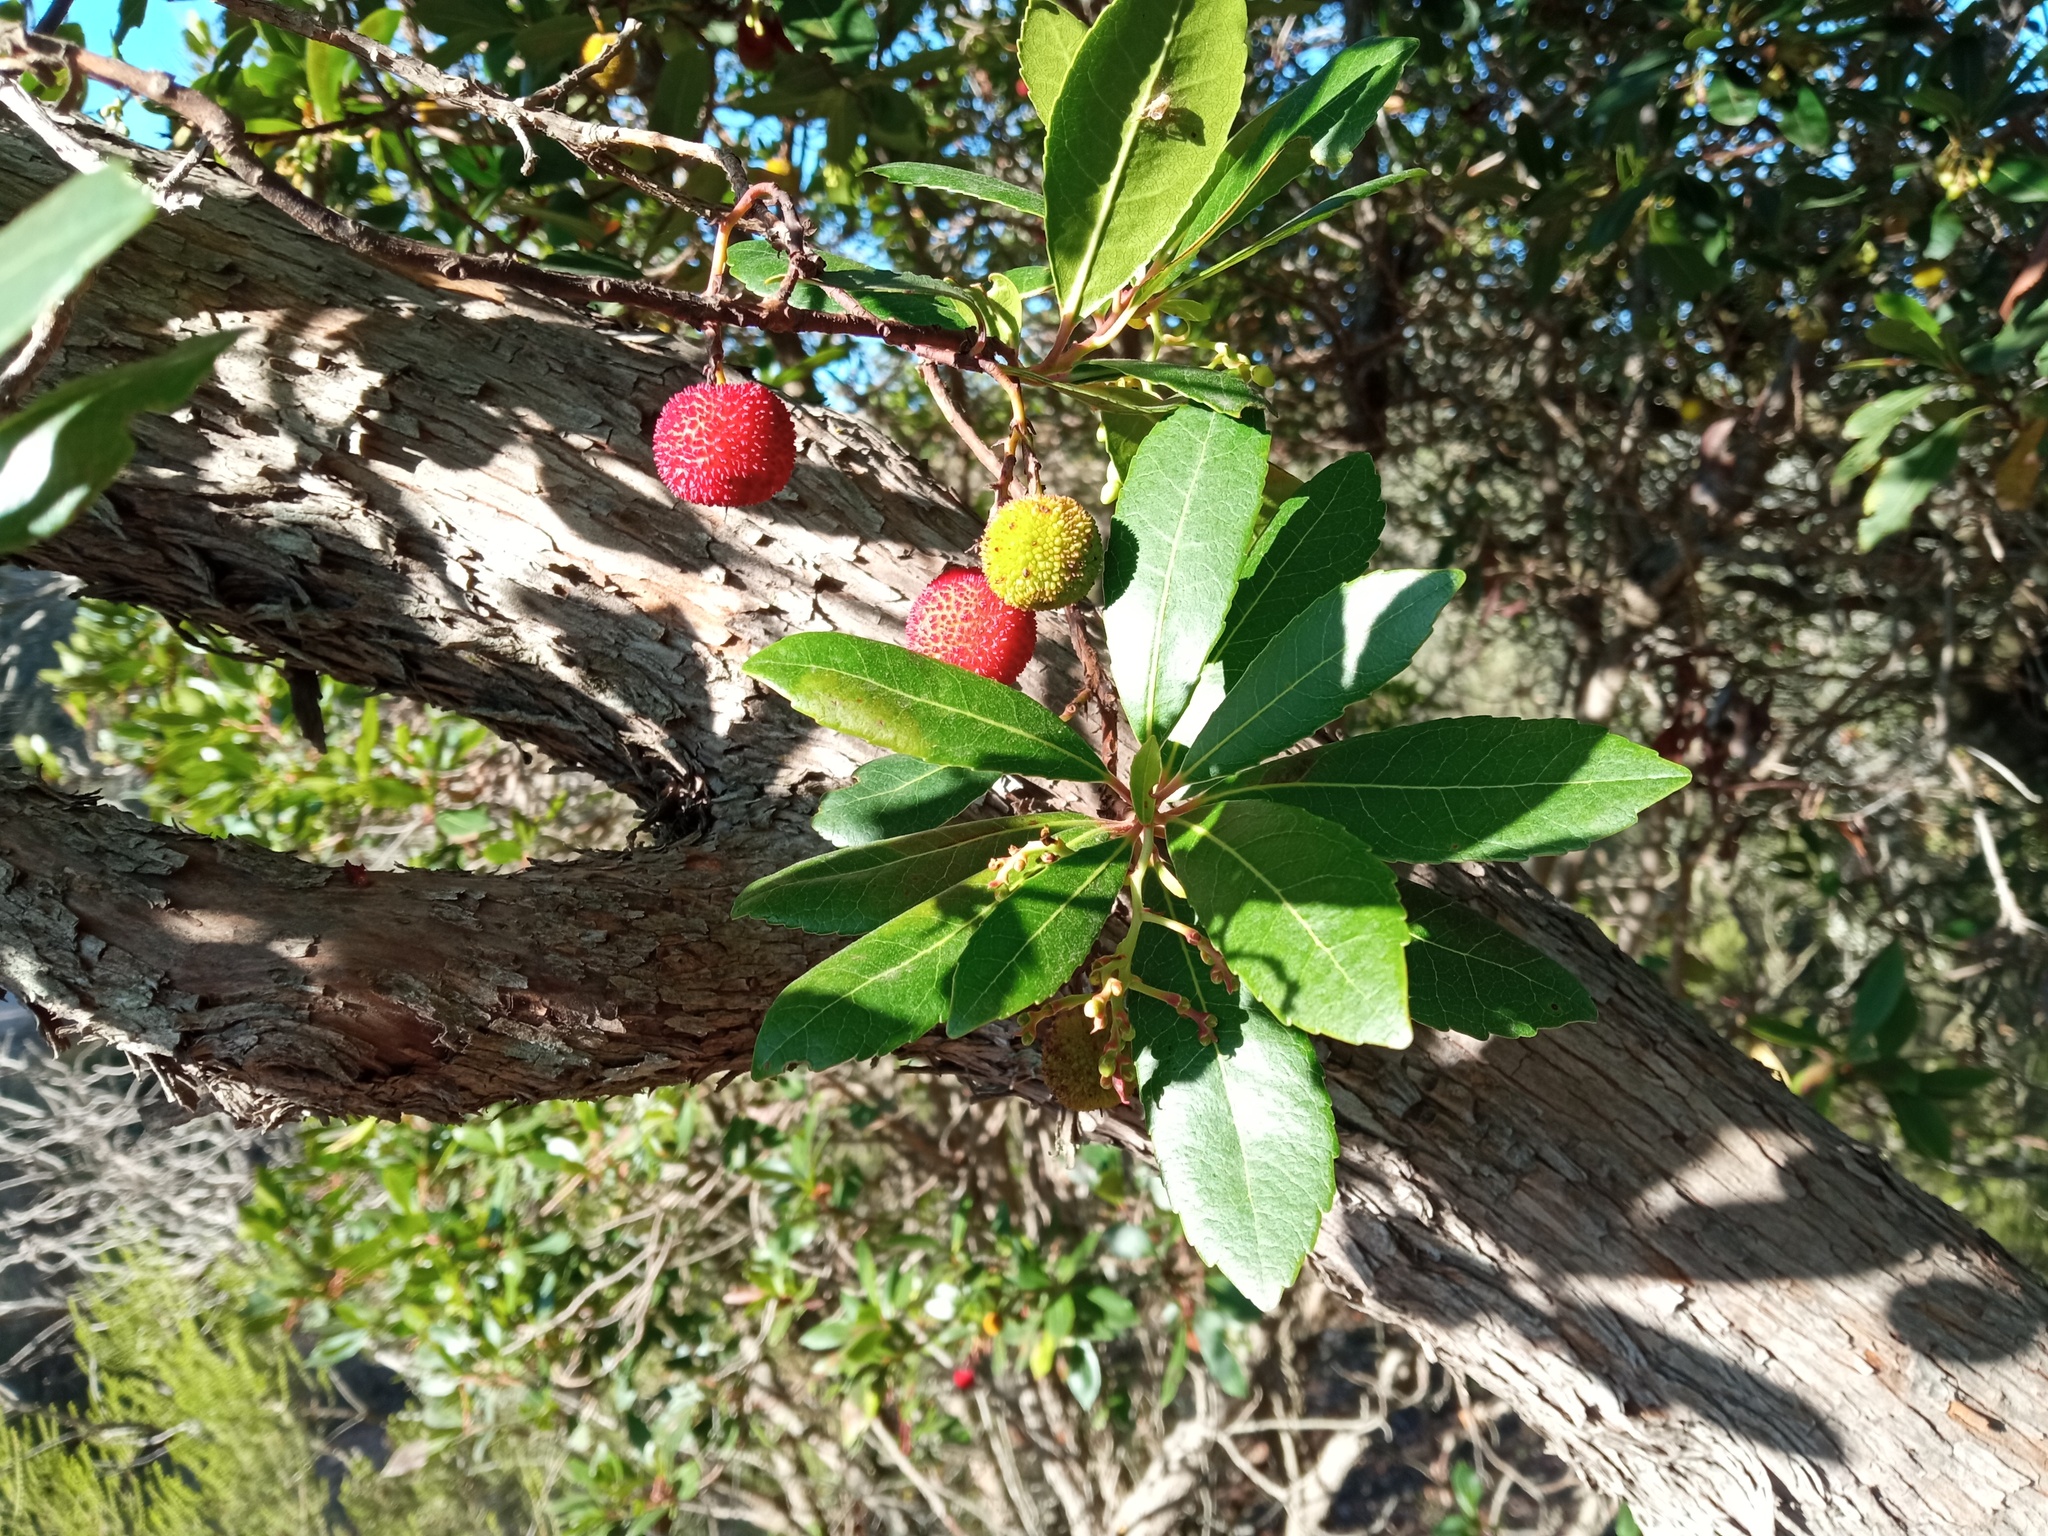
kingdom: Plantae
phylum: Tracheophyta
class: Magnoliopsida
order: Ericales
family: Ericaceae
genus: Arbutus
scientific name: Arbutus unedo
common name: Strawberry-tree
